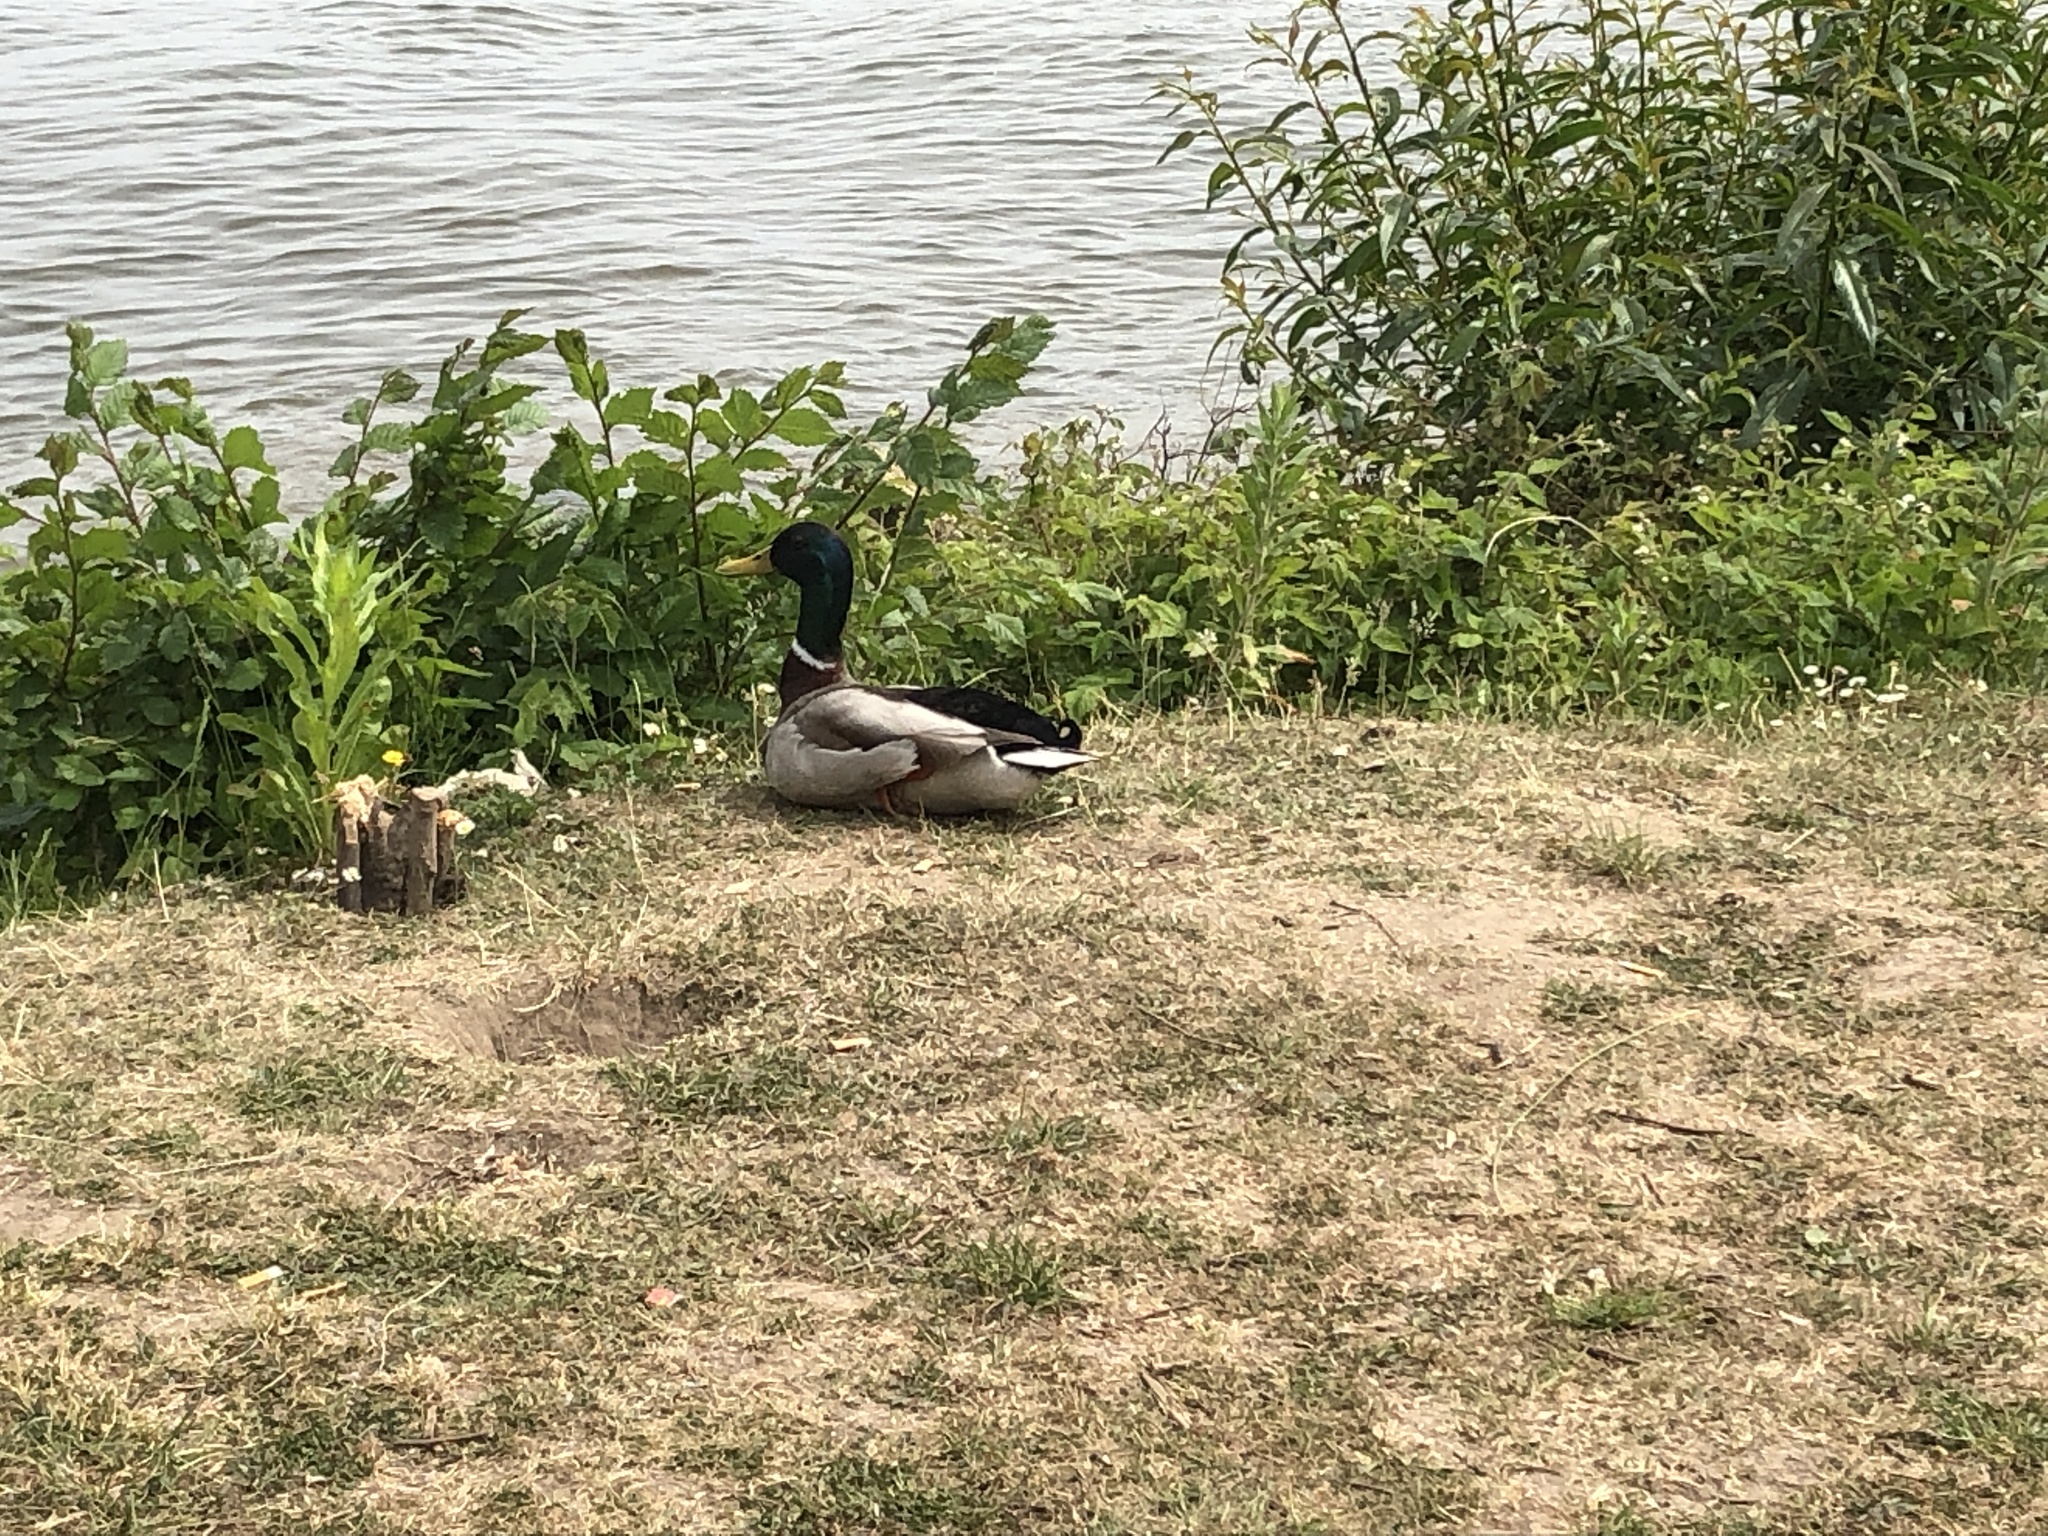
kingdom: Animalia
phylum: Chordata
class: Aves
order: Anseriformes
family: Anatidae
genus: Anas
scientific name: Anas platyrhynchos
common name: Mallard
